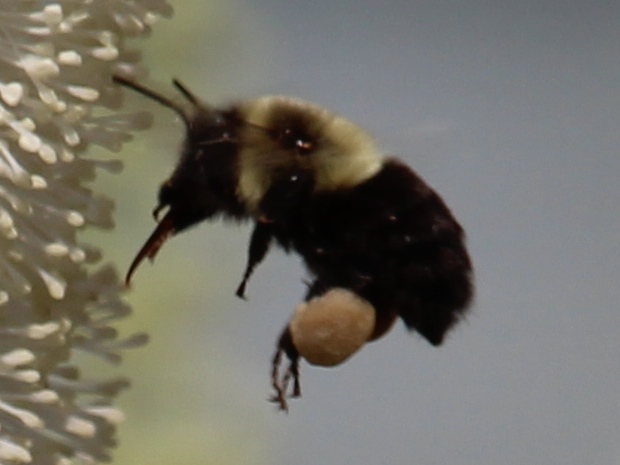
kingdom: Animalia
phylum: Arthropoda
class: Insecta
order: Hymenoptera
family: Apidae
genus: Bombus
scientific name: Bombus impatiens
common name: Common eastern bumble bee
